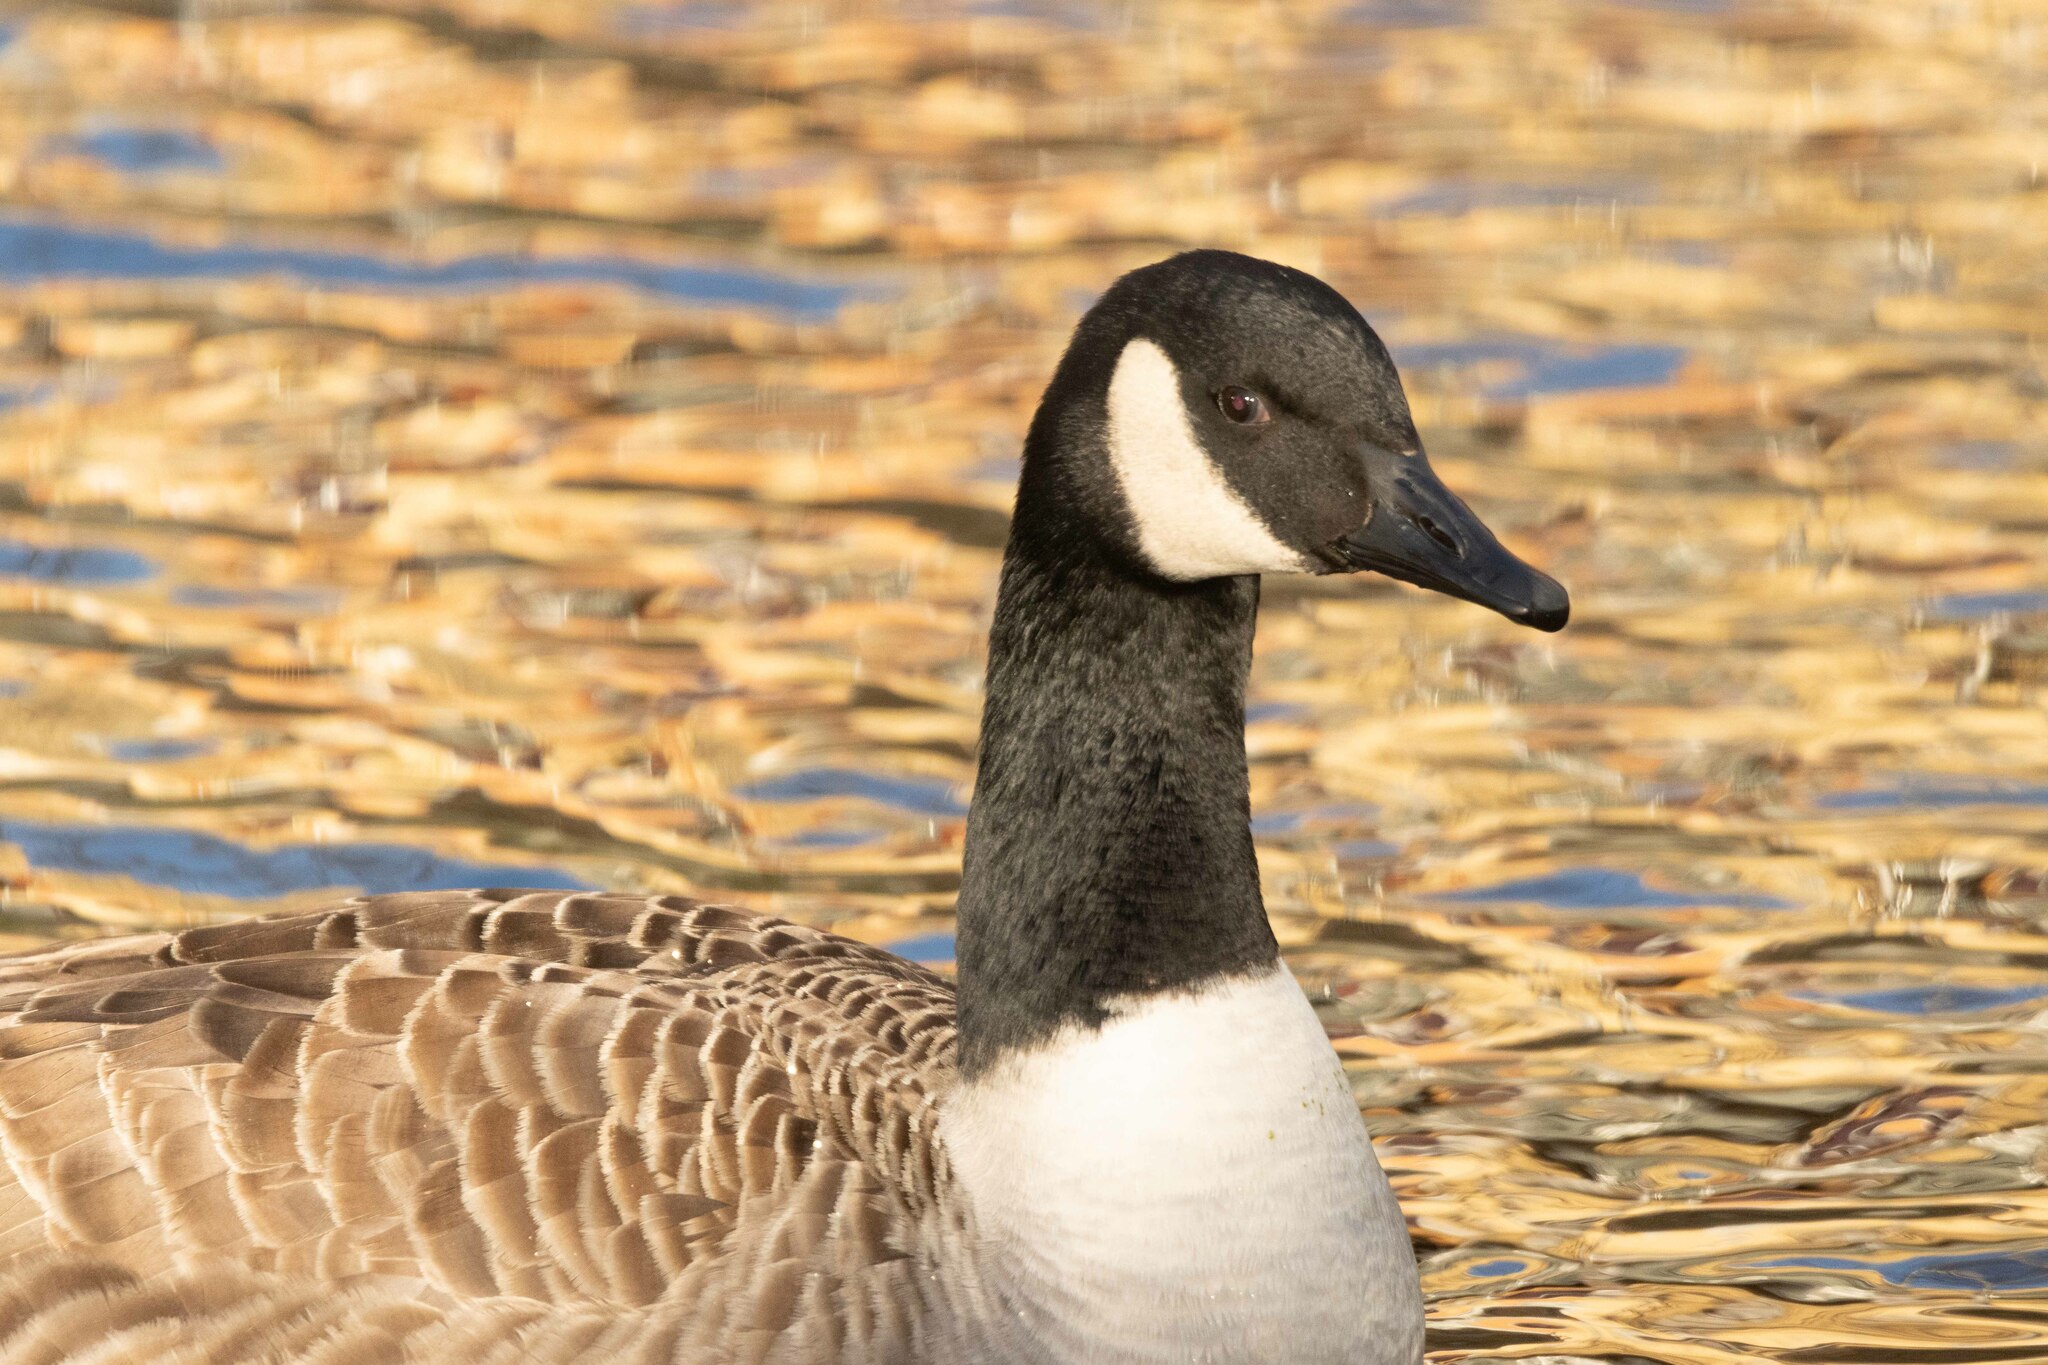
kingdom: Animalia
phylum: Chordata
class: Aves
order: Anseriformes
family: Anatidae
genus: Branta
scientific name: Branta canadensis
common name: Canada goose
